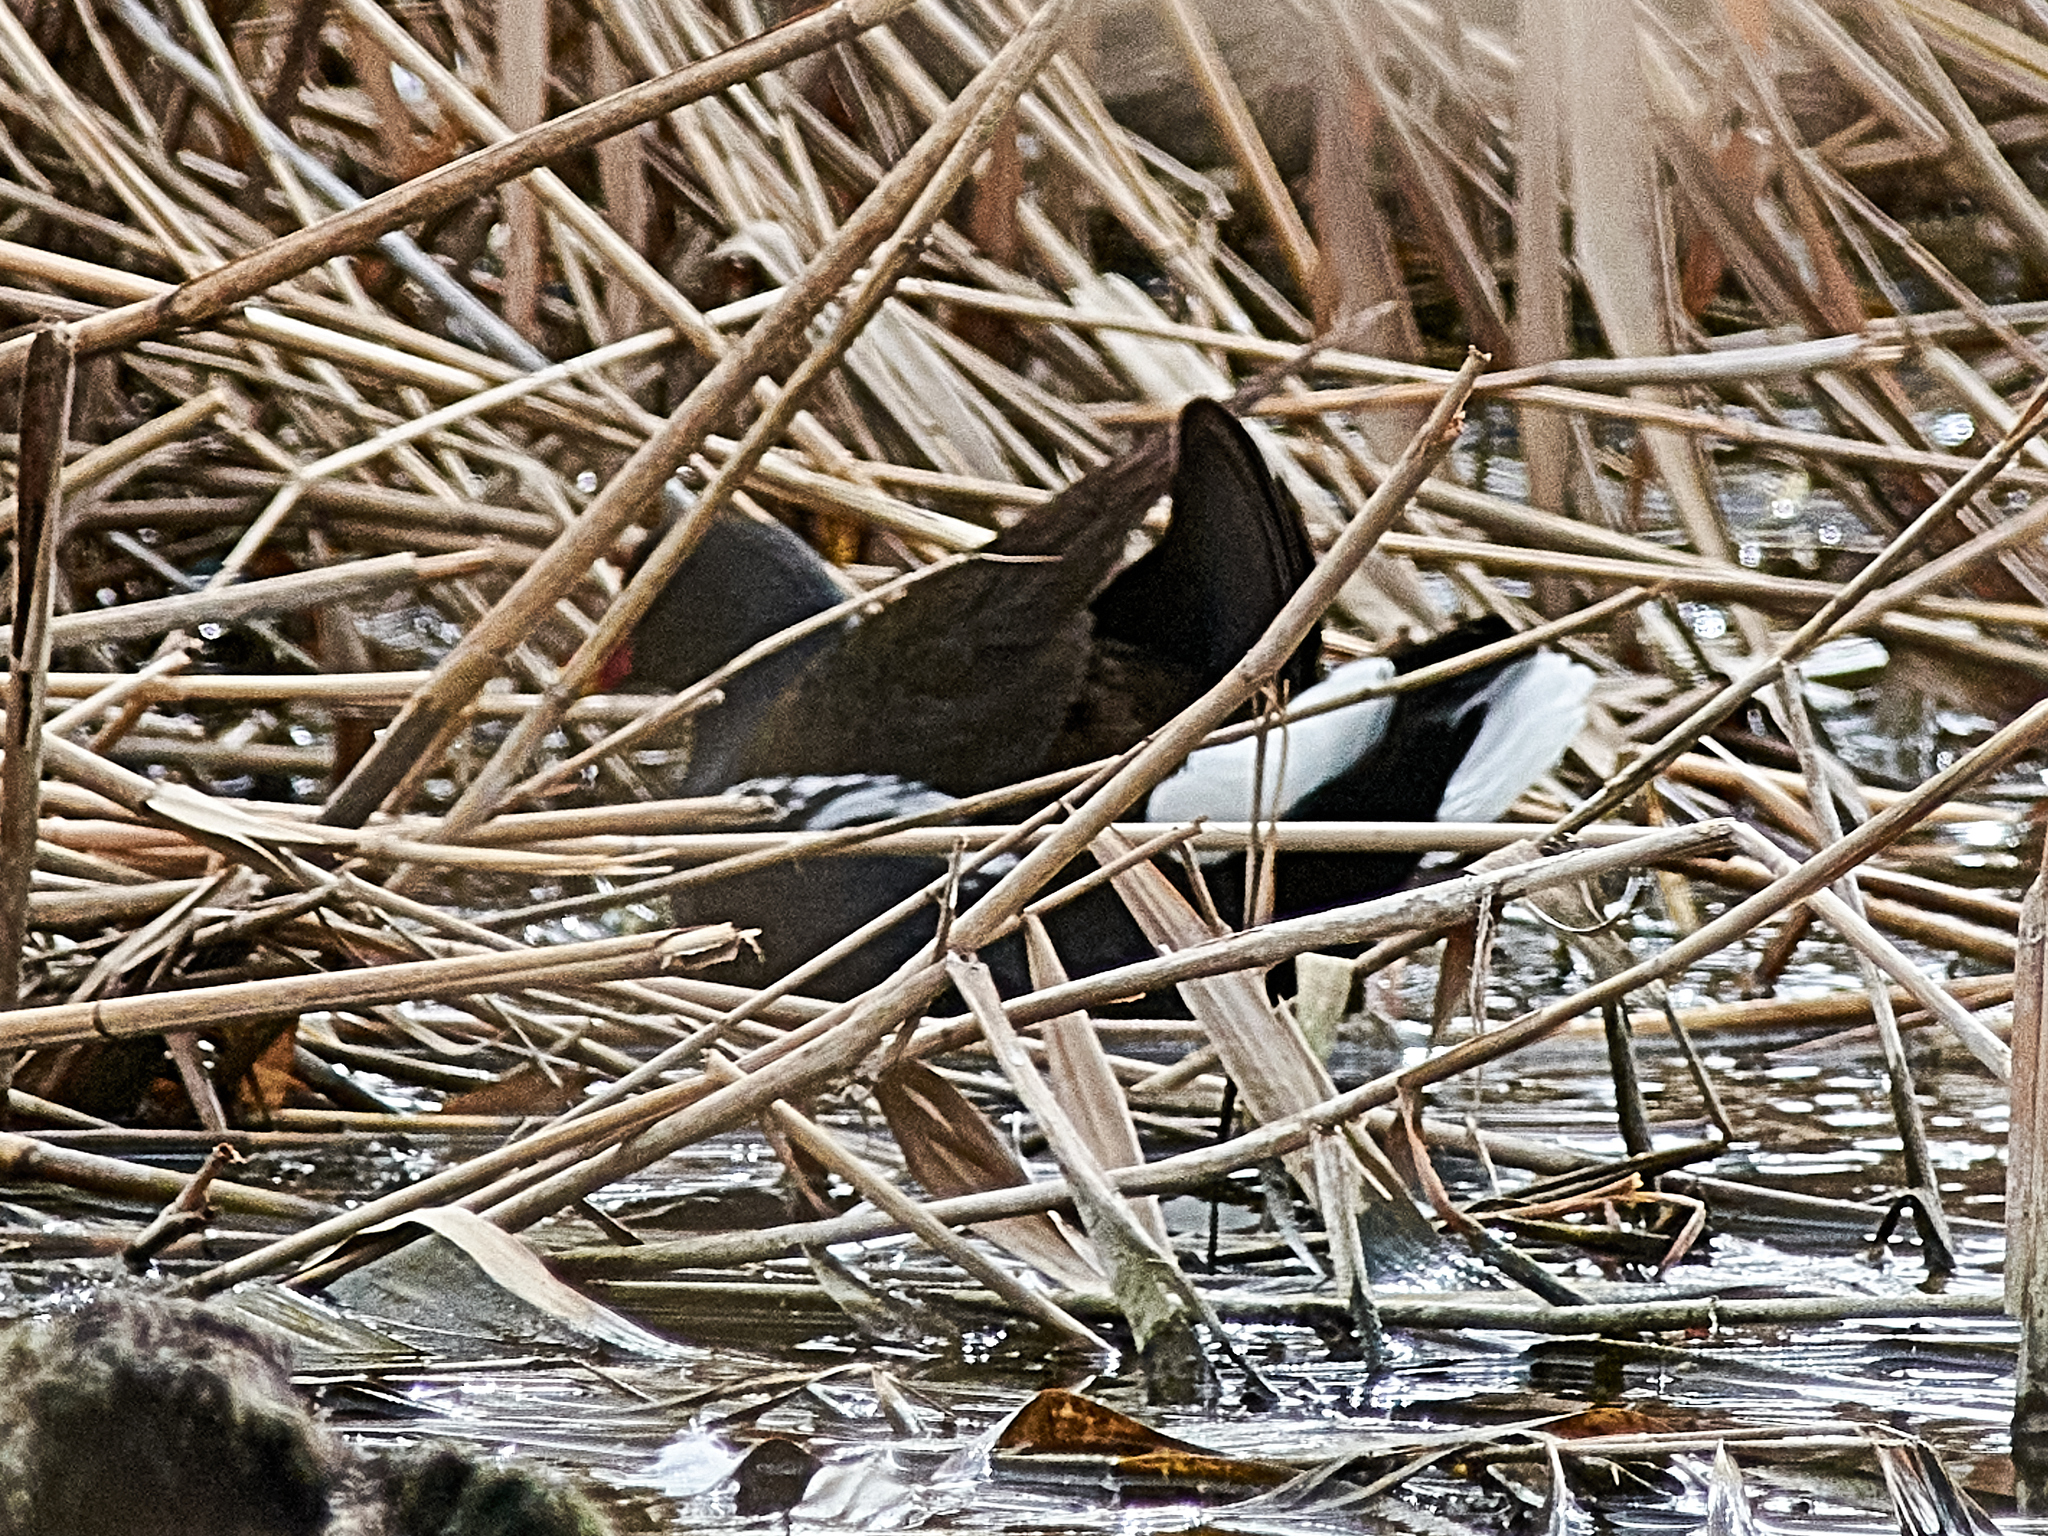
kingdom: Animalia
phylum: Chordata
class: Aves
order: Gruiformes
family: Rallidae
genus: Gallinula
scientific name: Gallinula chloropus
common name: Common moorhen
